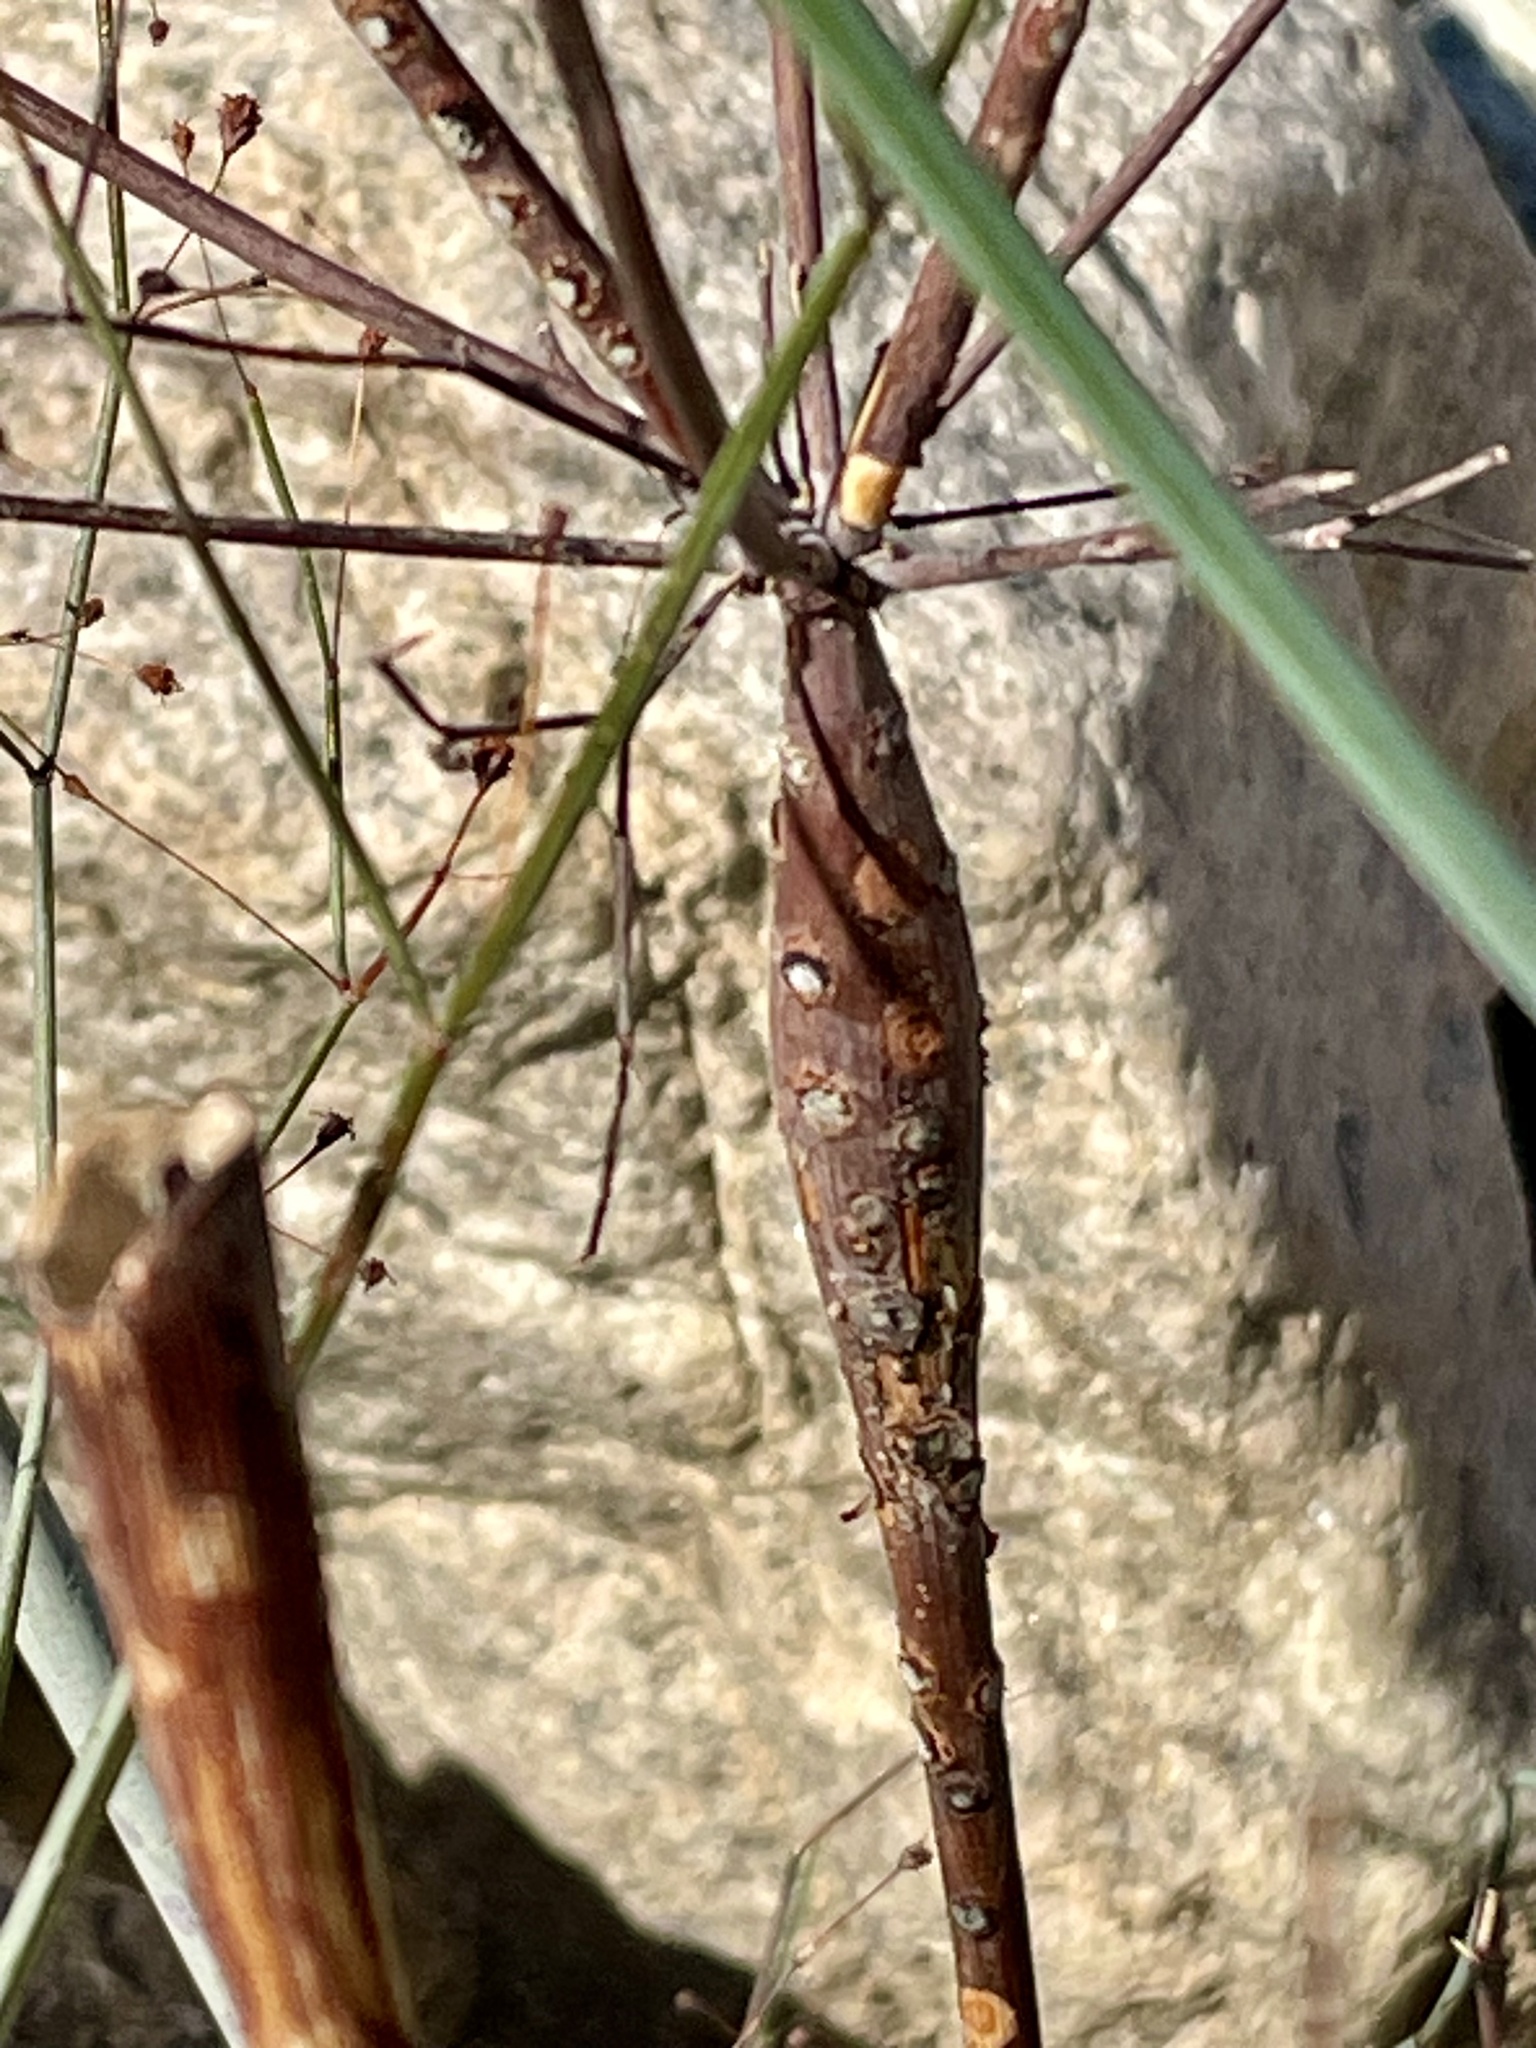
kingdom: Plantae
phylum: Tracheophyta
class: Magnoliopsida
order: Caryophyllales
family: Polygonaceae
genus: Eriogonum
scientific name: Eriogonum inflatum
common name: Desert trumpet
